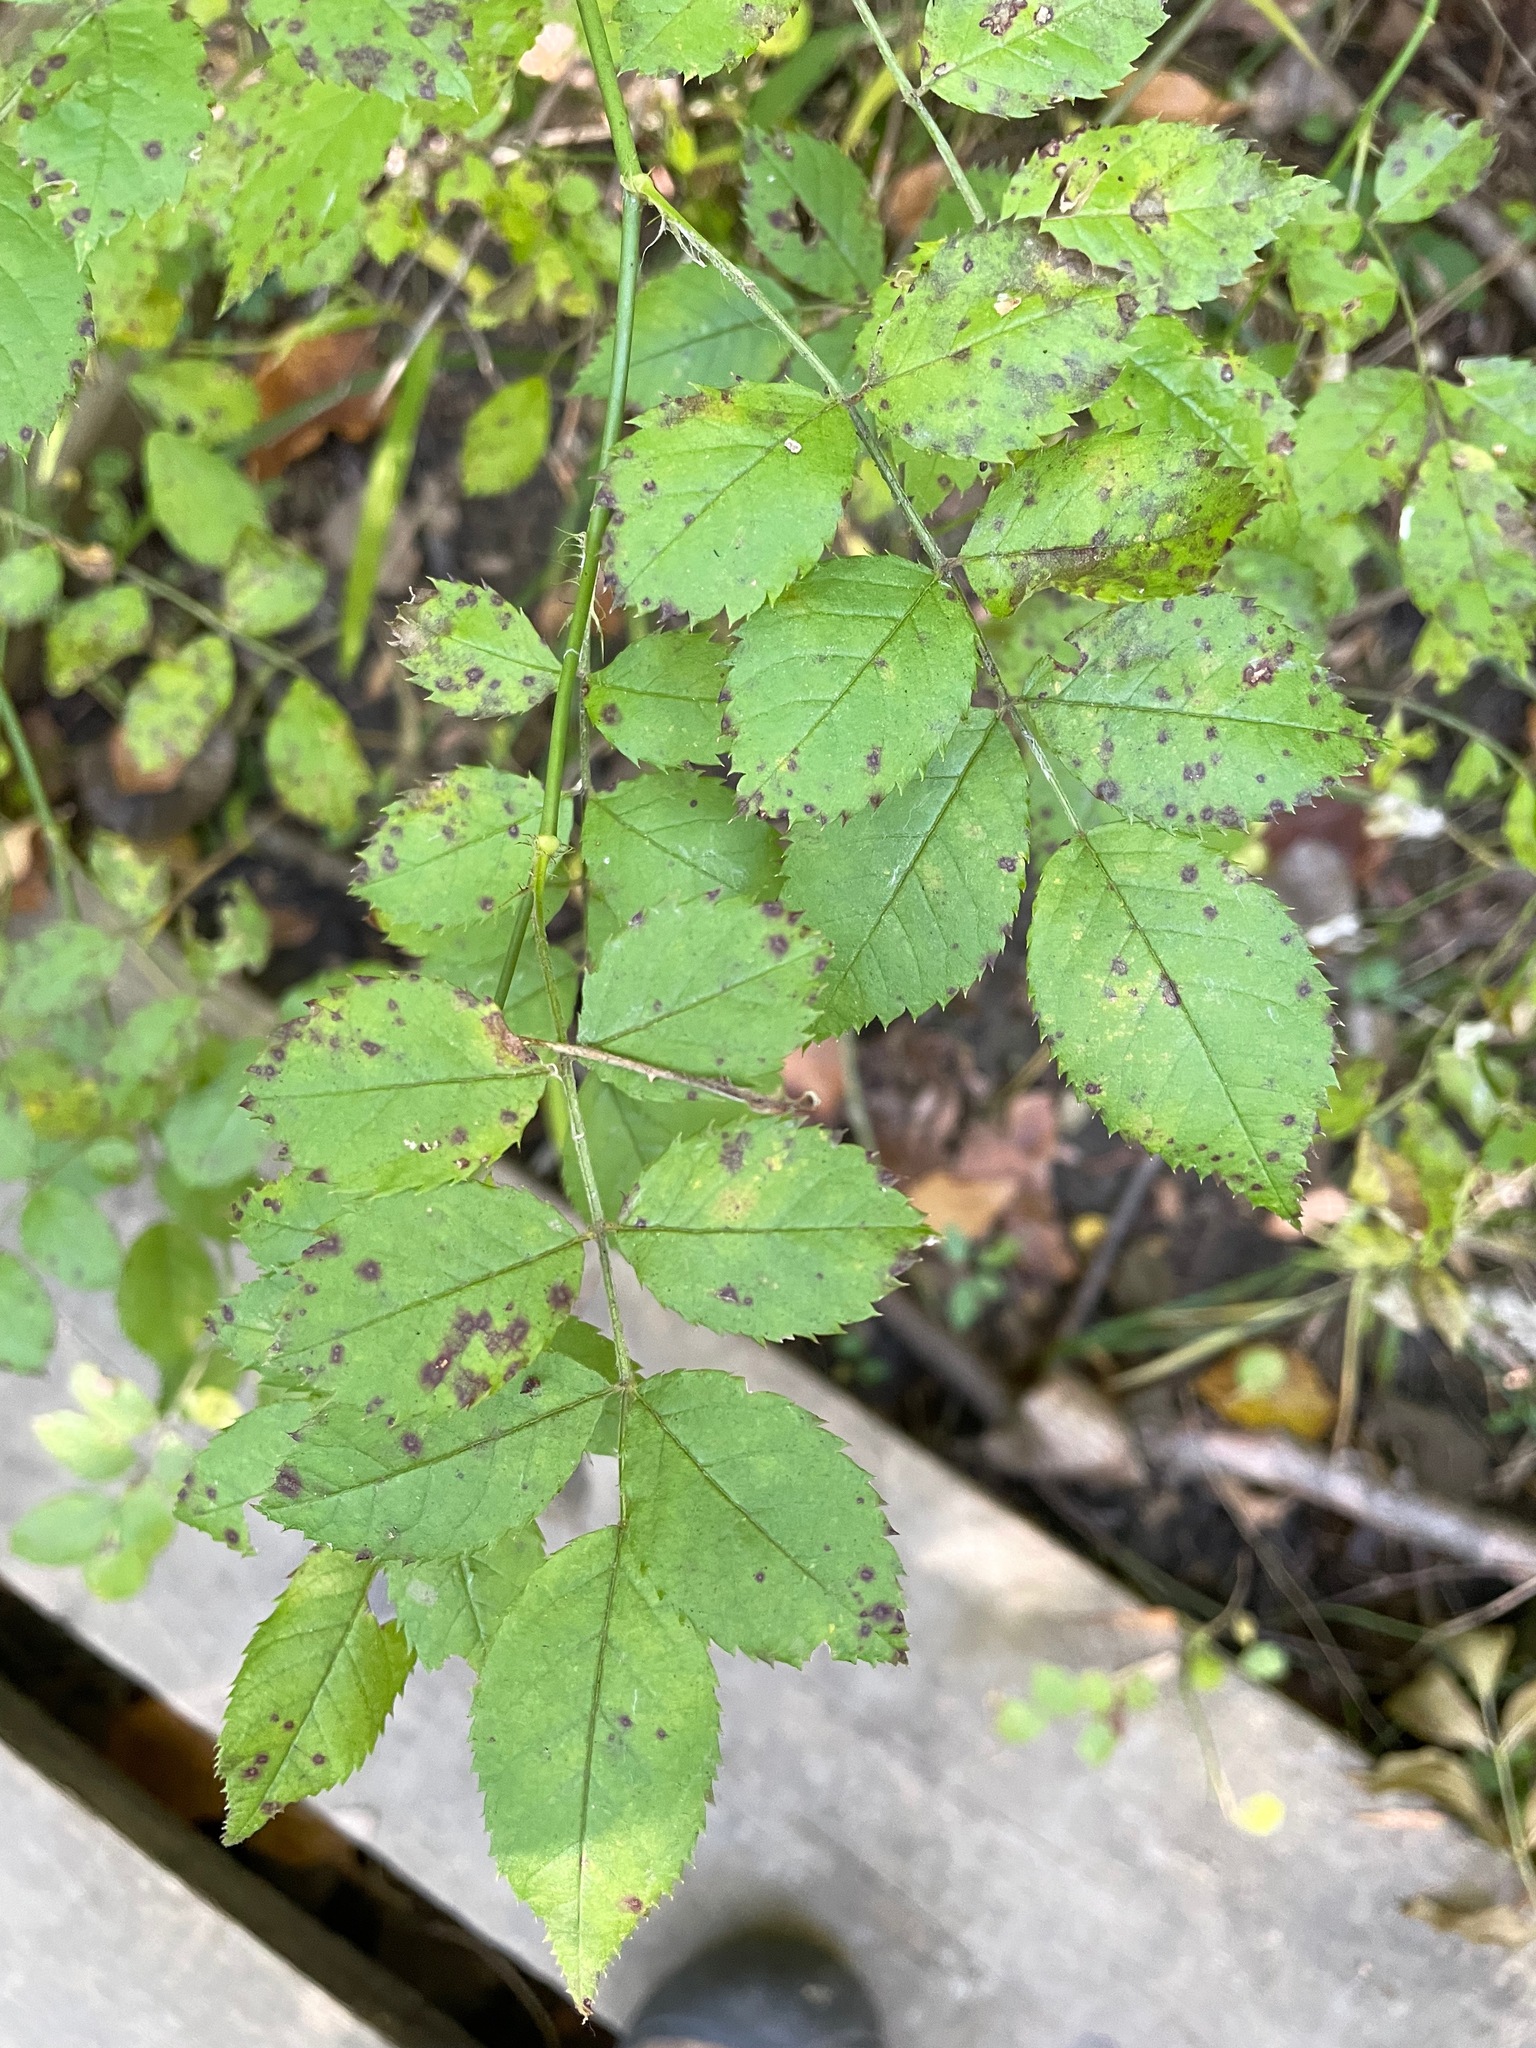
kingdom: Plantae
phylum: Tracheophyta
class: Magnoliopsida
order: Rosales
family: Rosaceae
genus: Rosa
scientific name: Rosa multiflora
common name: Multiflora rose
